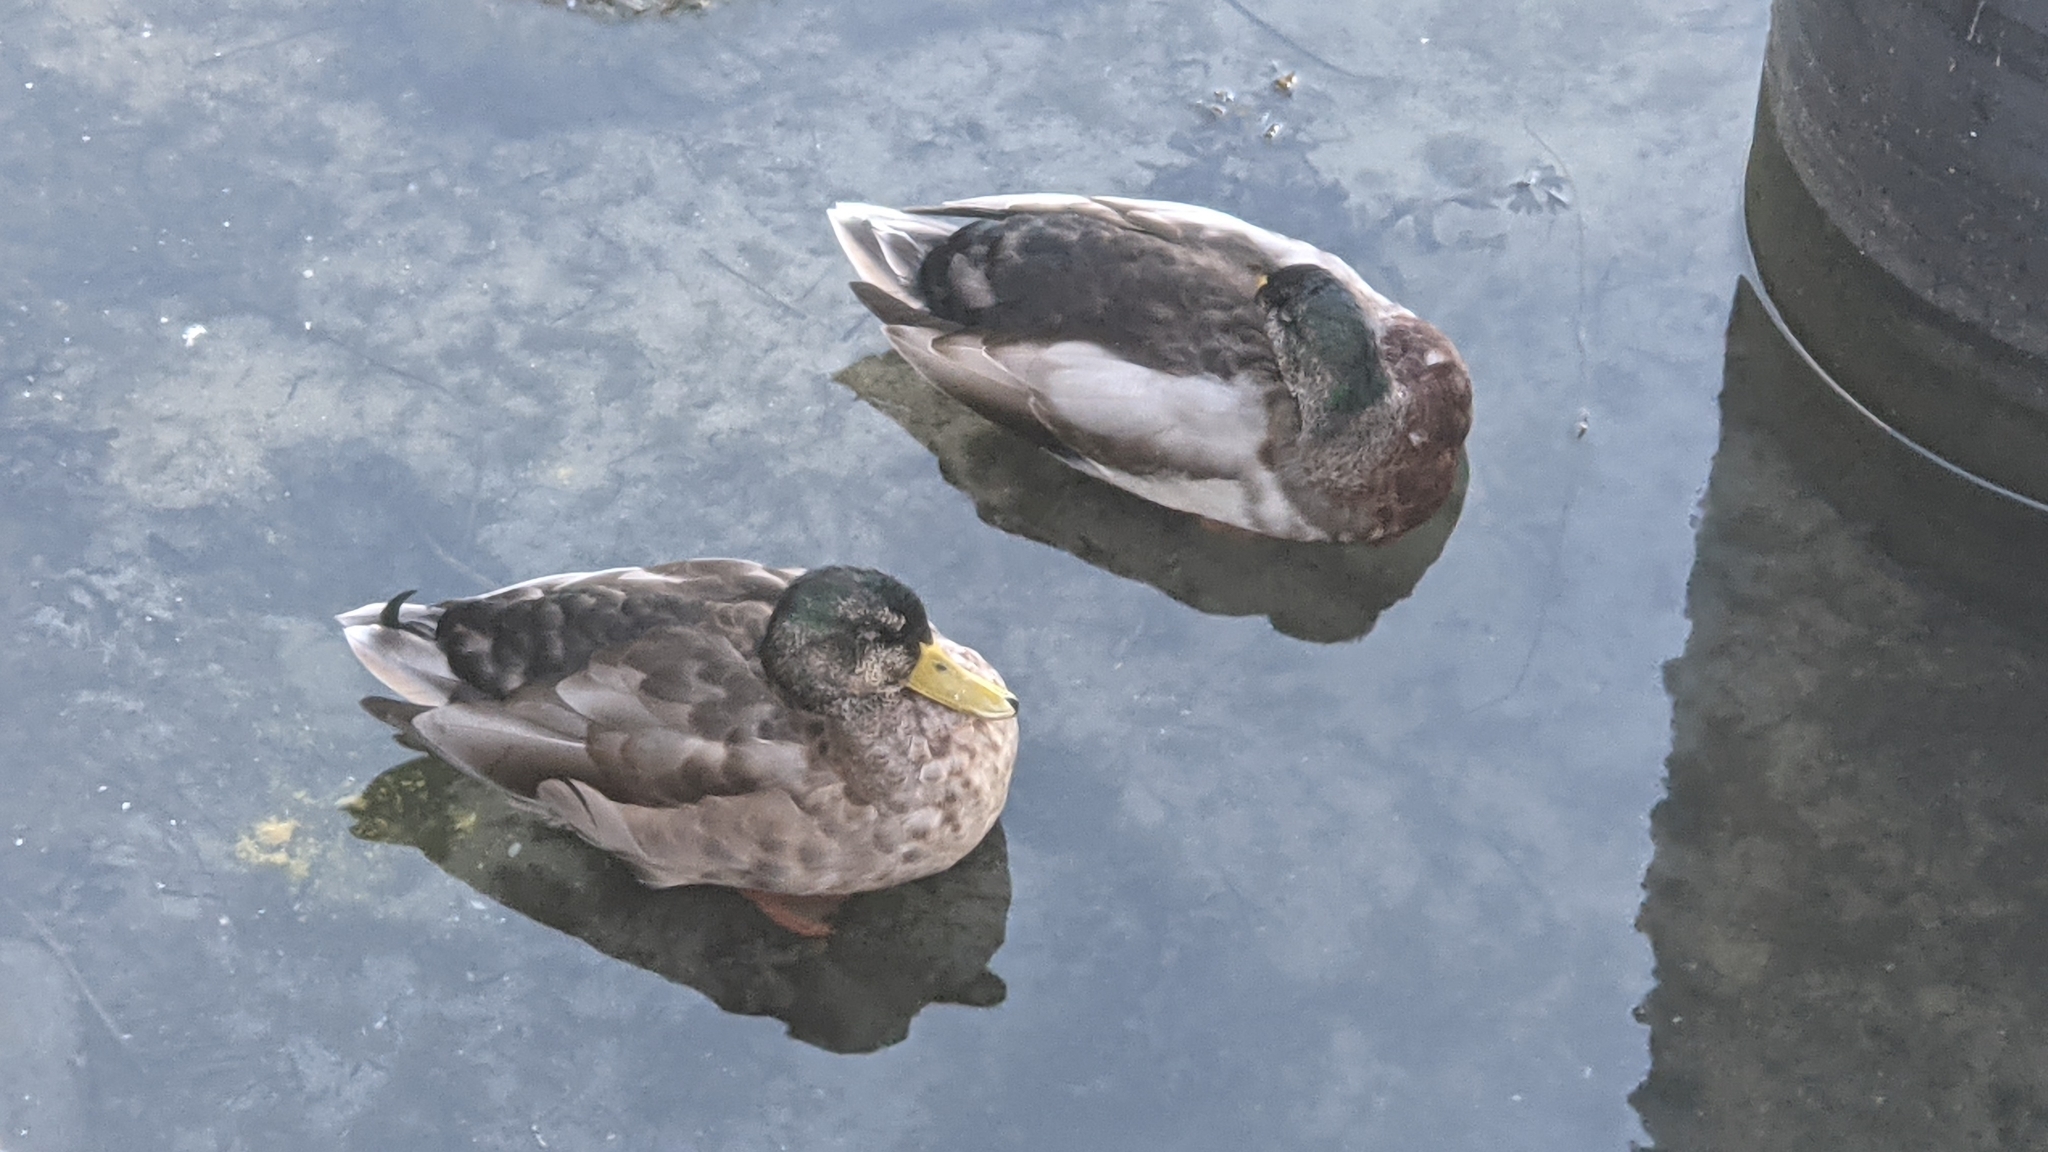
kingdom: Animalia
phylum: Chordata
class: Aves
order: Anseriformes
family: Anatidae
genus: Anas
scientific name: Anas platyrhynchos
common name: Mallard
